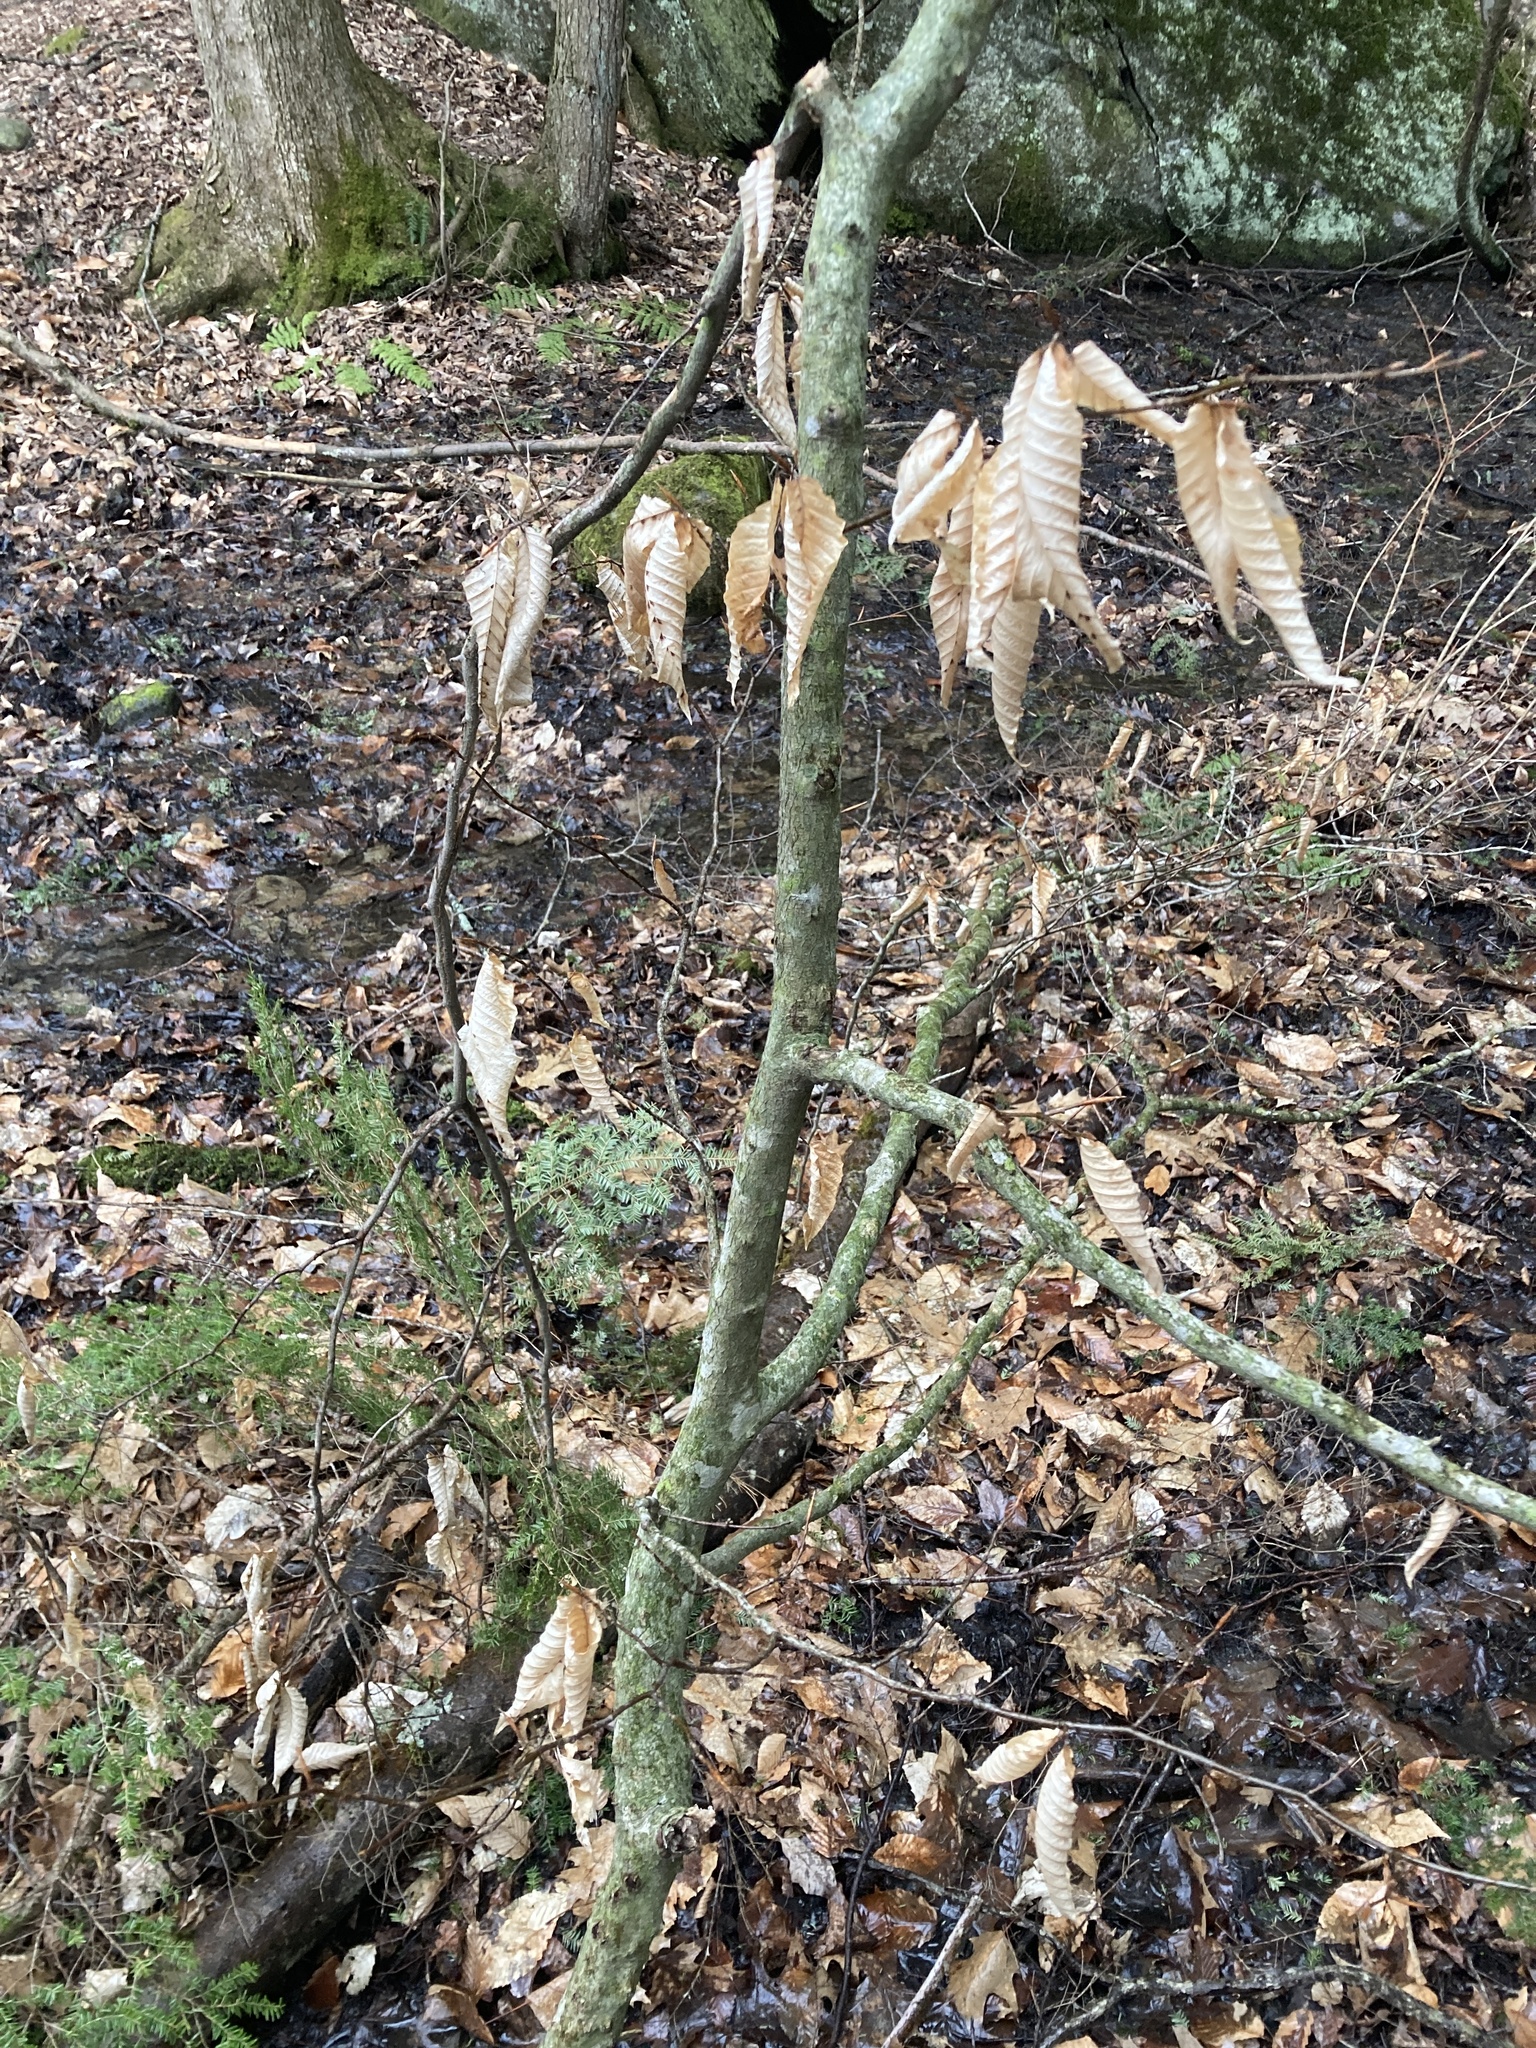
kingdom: Plantae
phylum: Tracheophyta
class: Magnoliopsida
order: Fagales
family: Fagaceae
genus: Fagus
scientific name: Fagus grandifolia
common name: American beech
